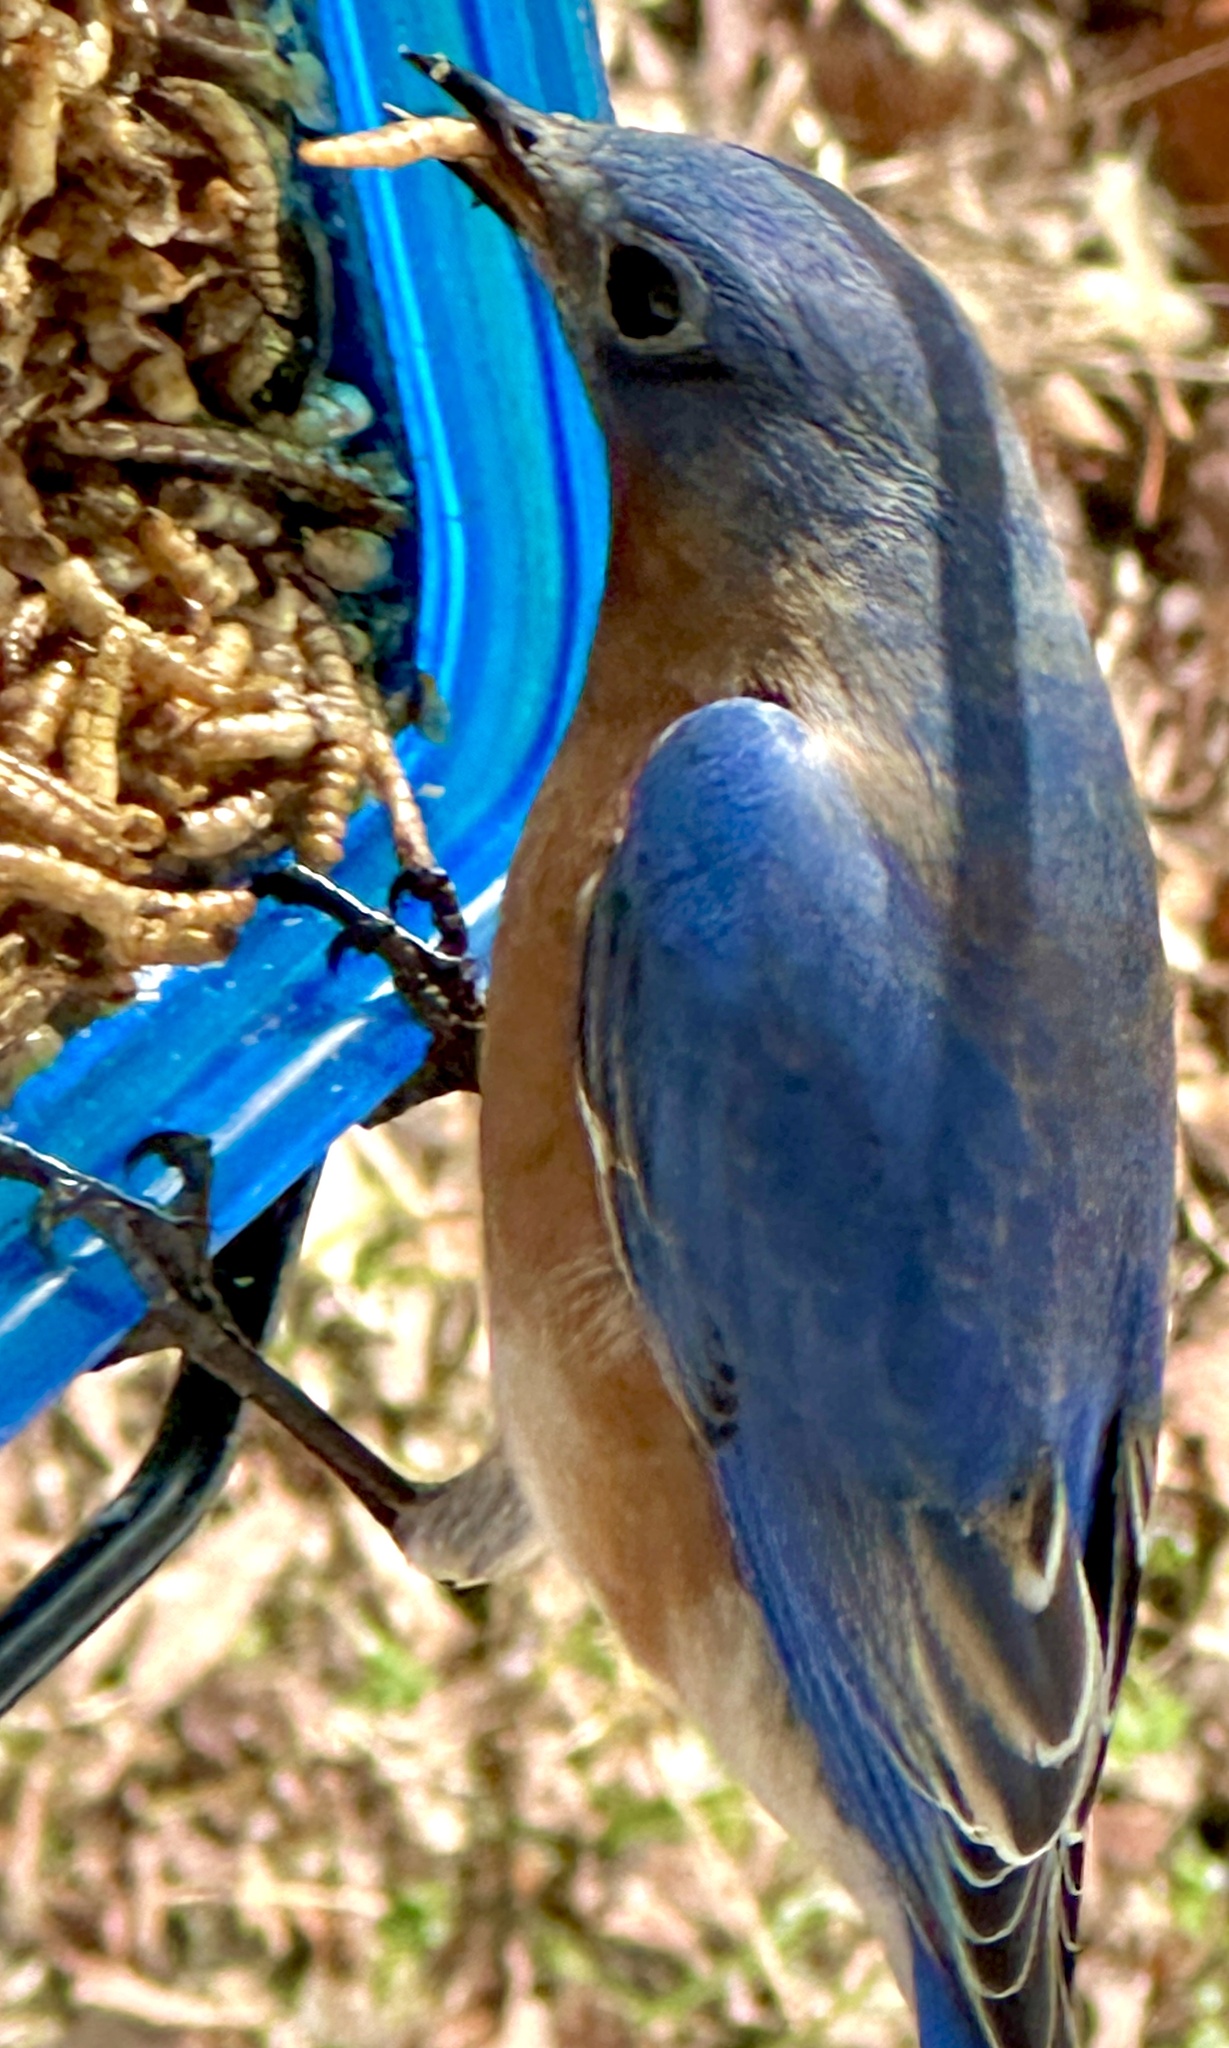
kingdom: Animalia
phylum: Chordata
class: Aves
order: Passeriformes
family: Turdidae
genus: Sialia
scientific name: Sialia sialis
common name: Eastern bluebird
